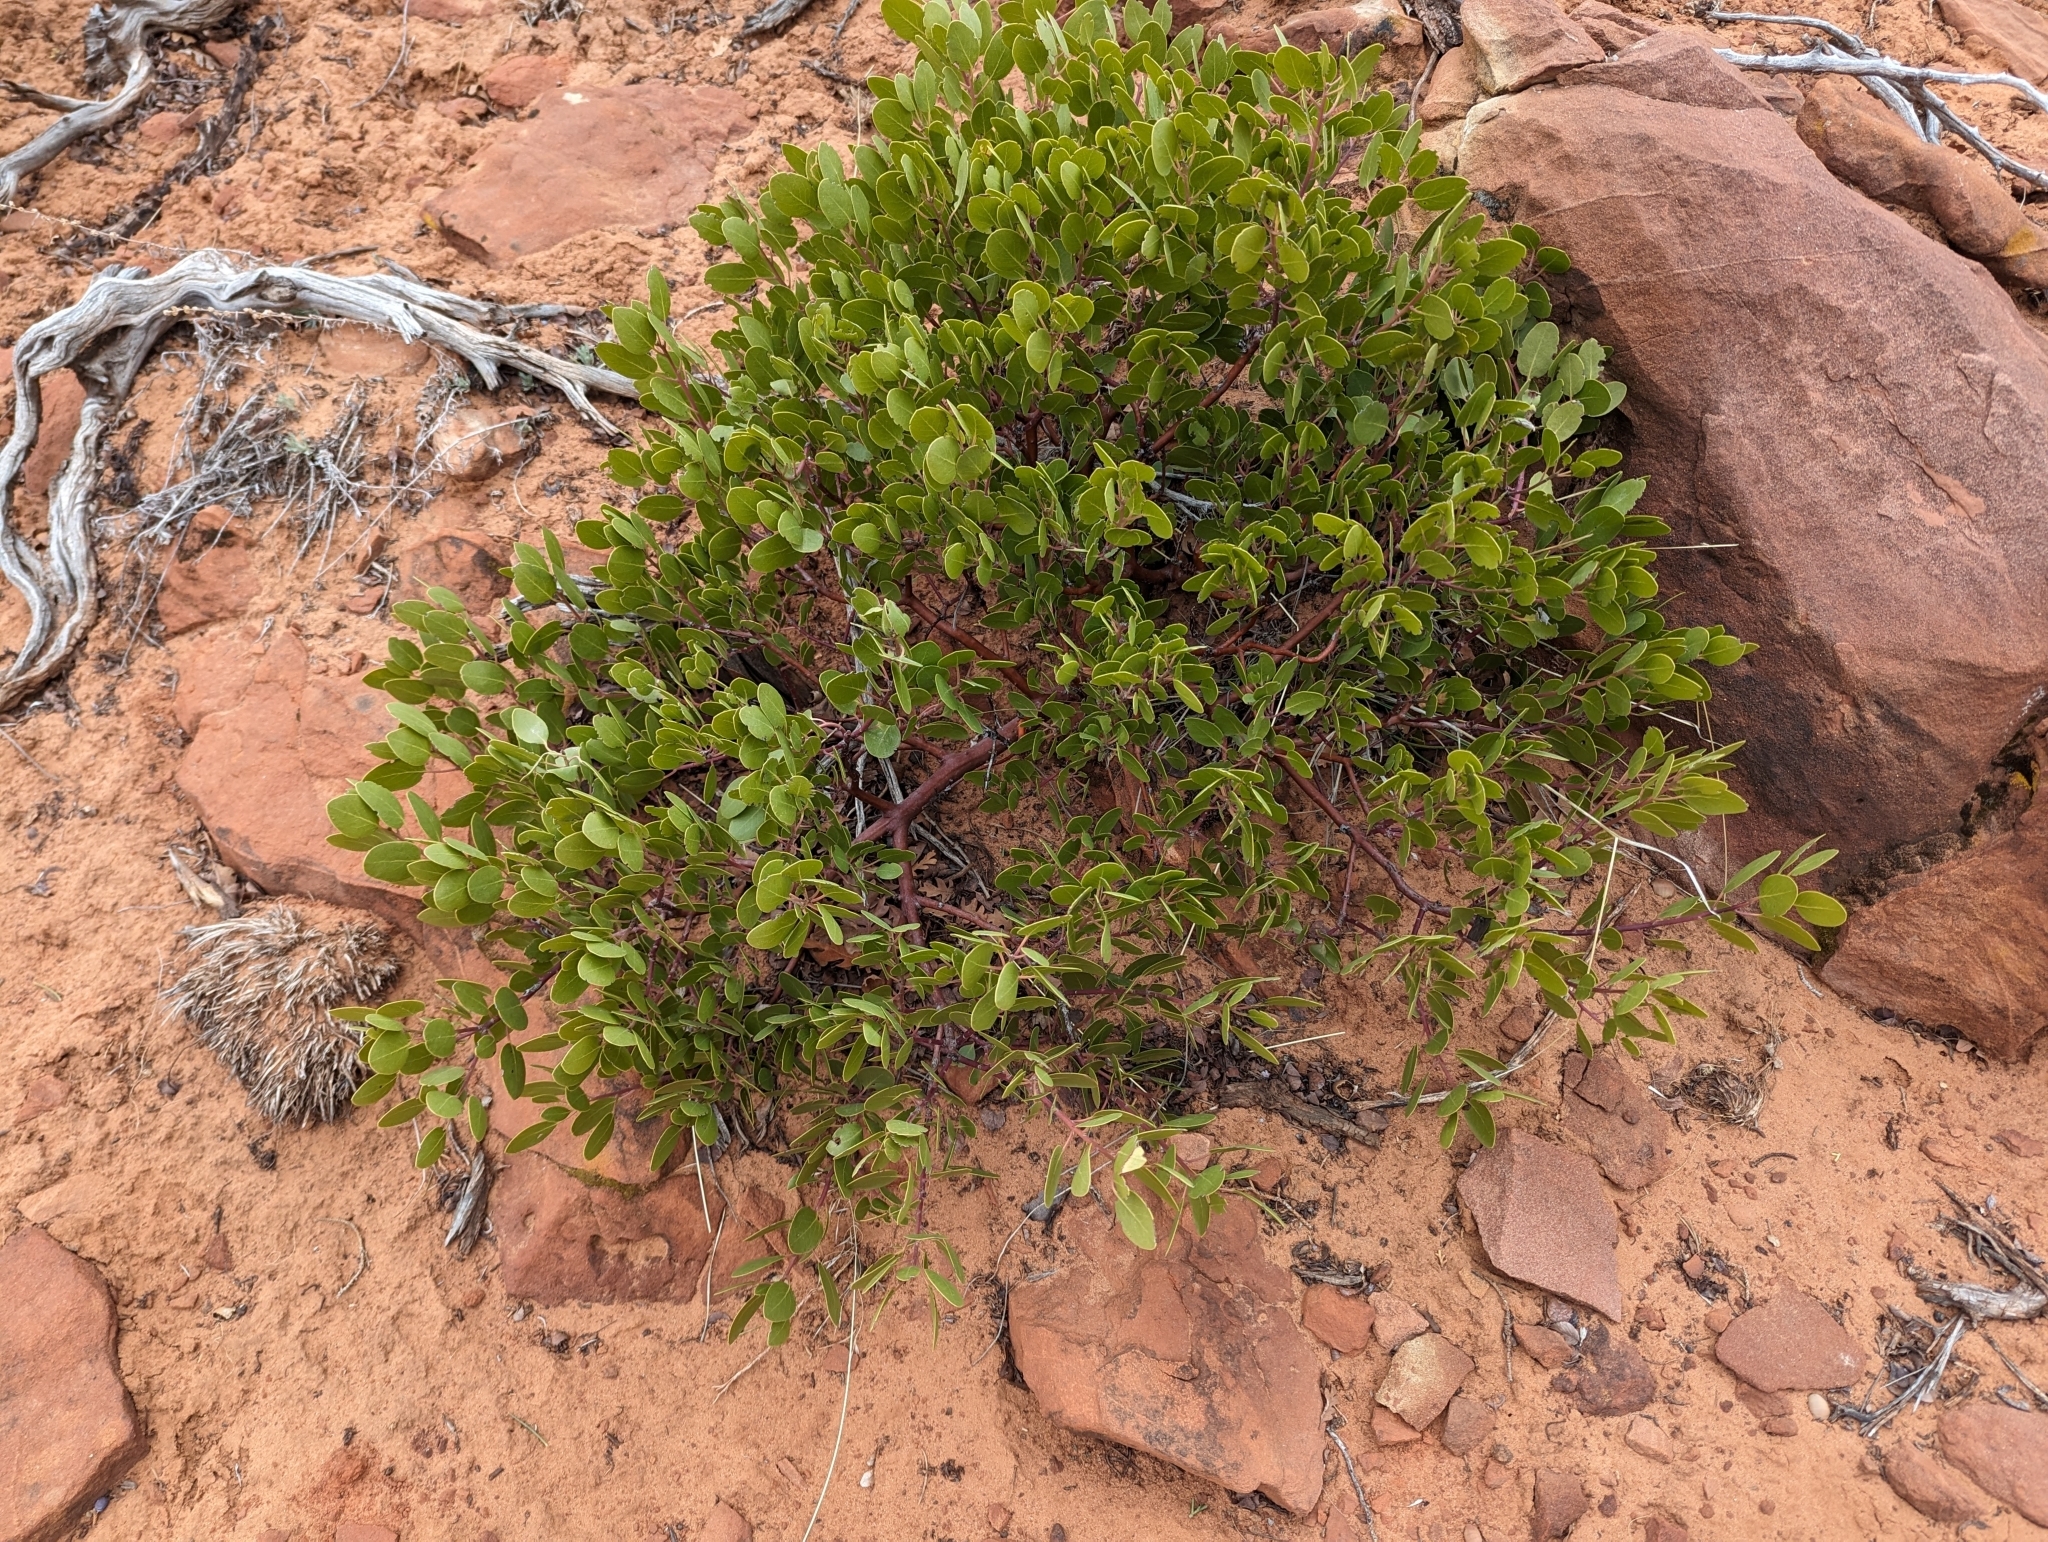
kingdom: Plantae
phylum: Tracheophyta
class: Magnoliopsida
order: Ericales
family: Ericaceae
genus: Arctostaphylos
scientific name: Arctostaphylos patula
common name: Green-leaf manzanita
